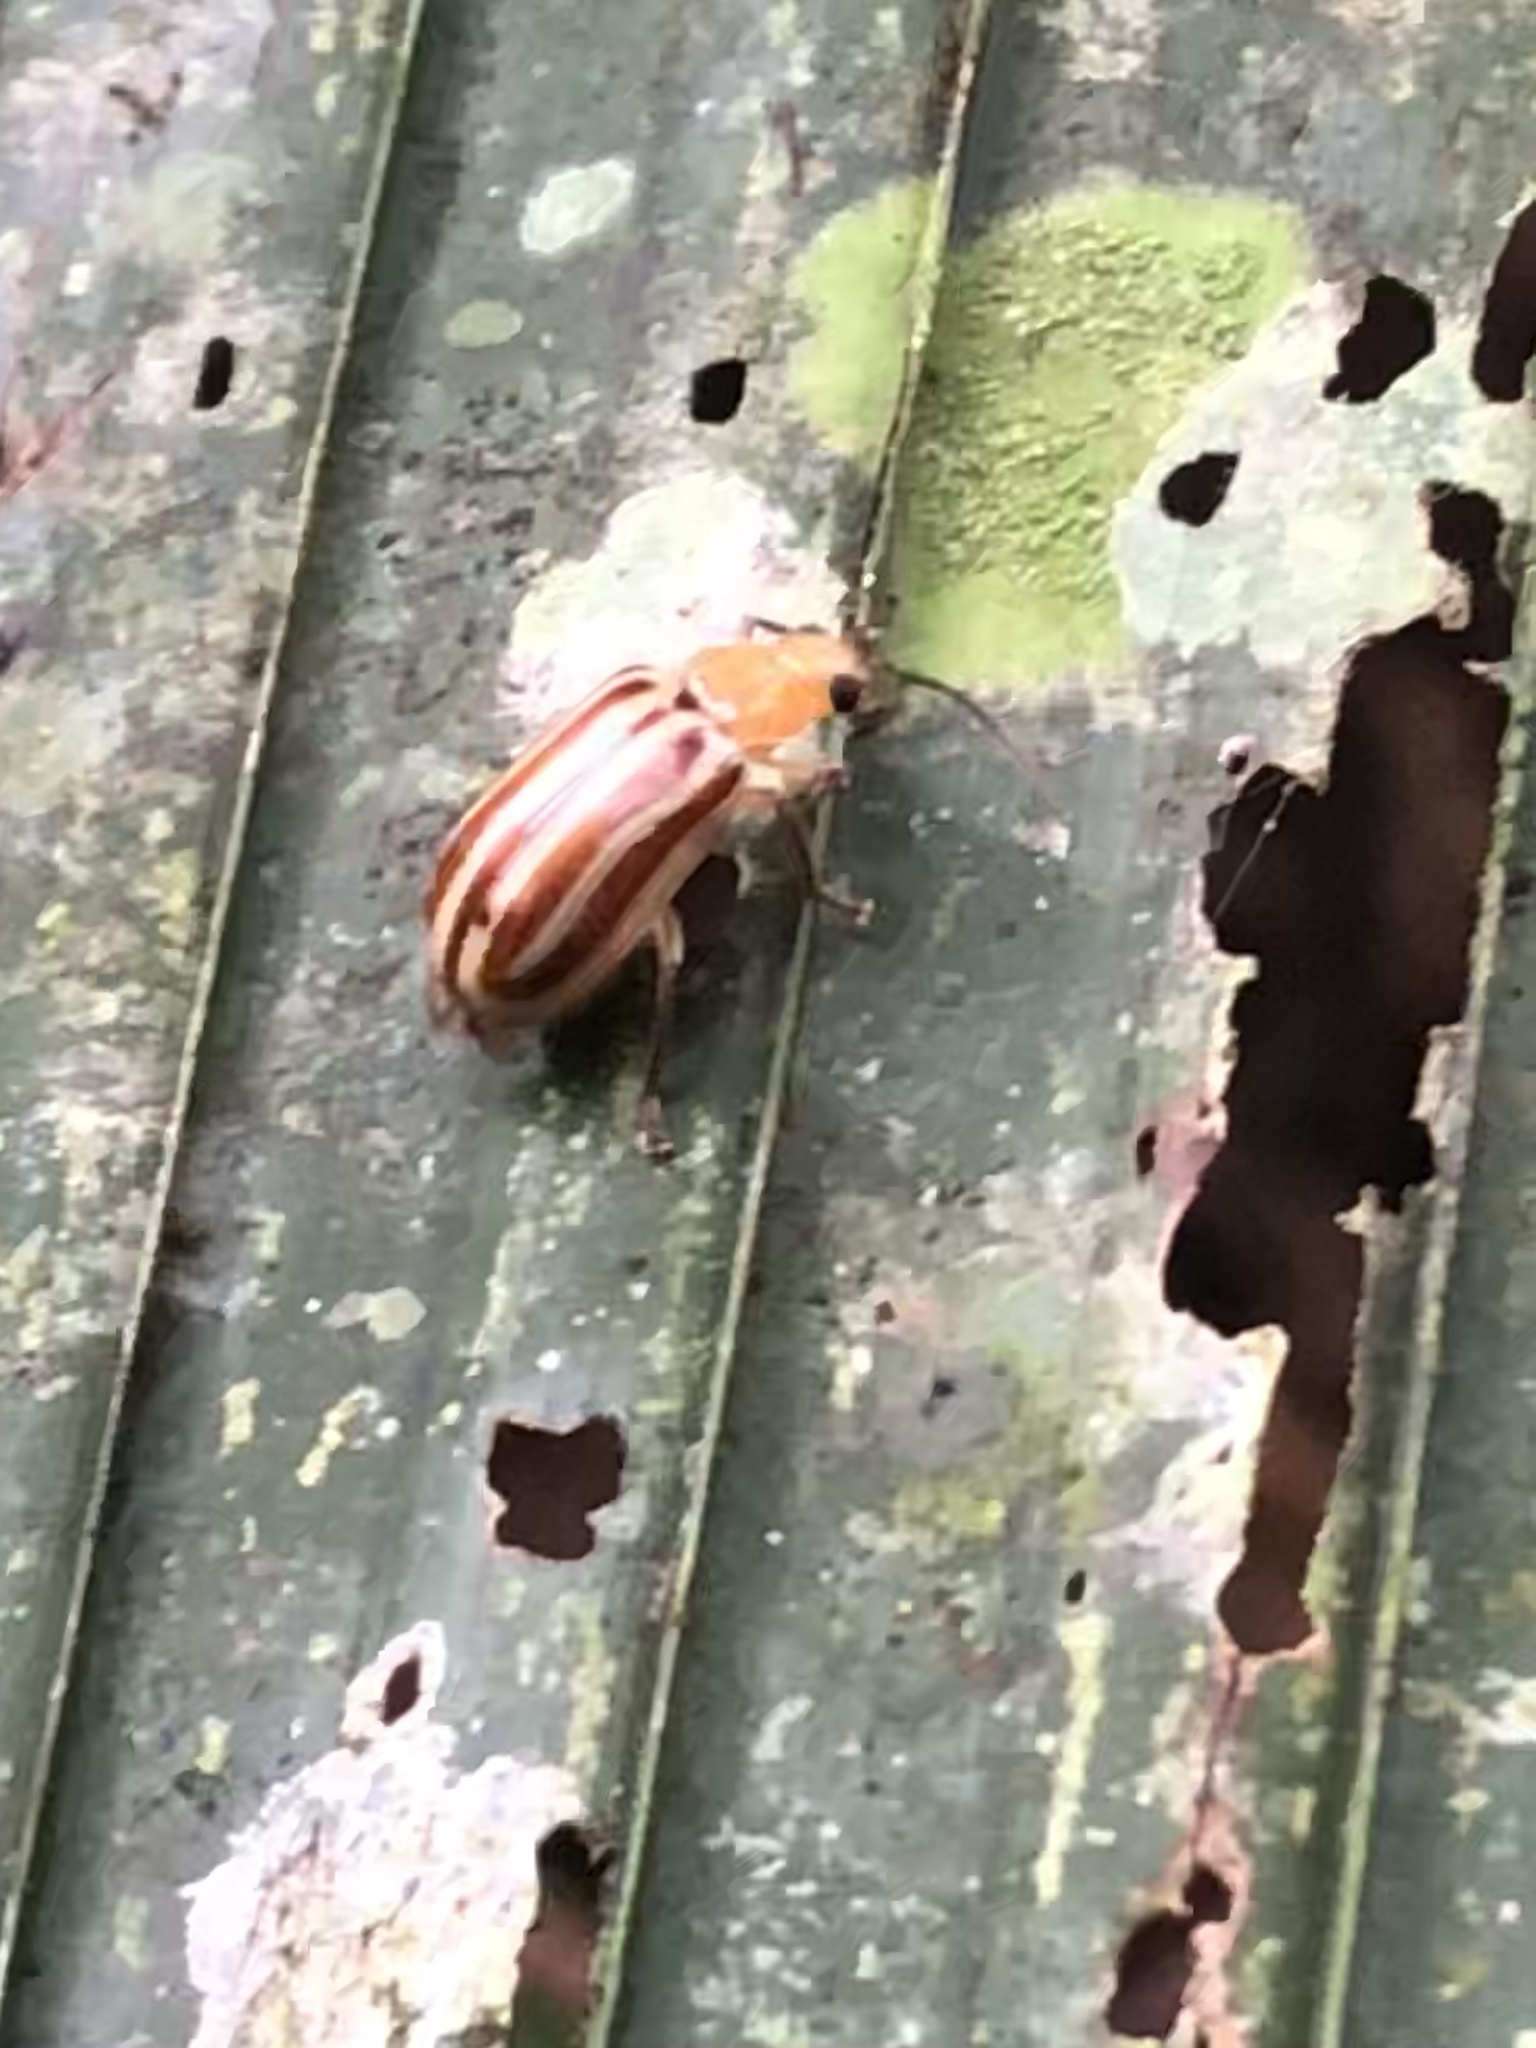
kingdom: Animalia
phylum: Arthropoda
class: Insecta
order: Coleoptera
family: Chrysomelidae
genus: Exora
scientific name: Exora
